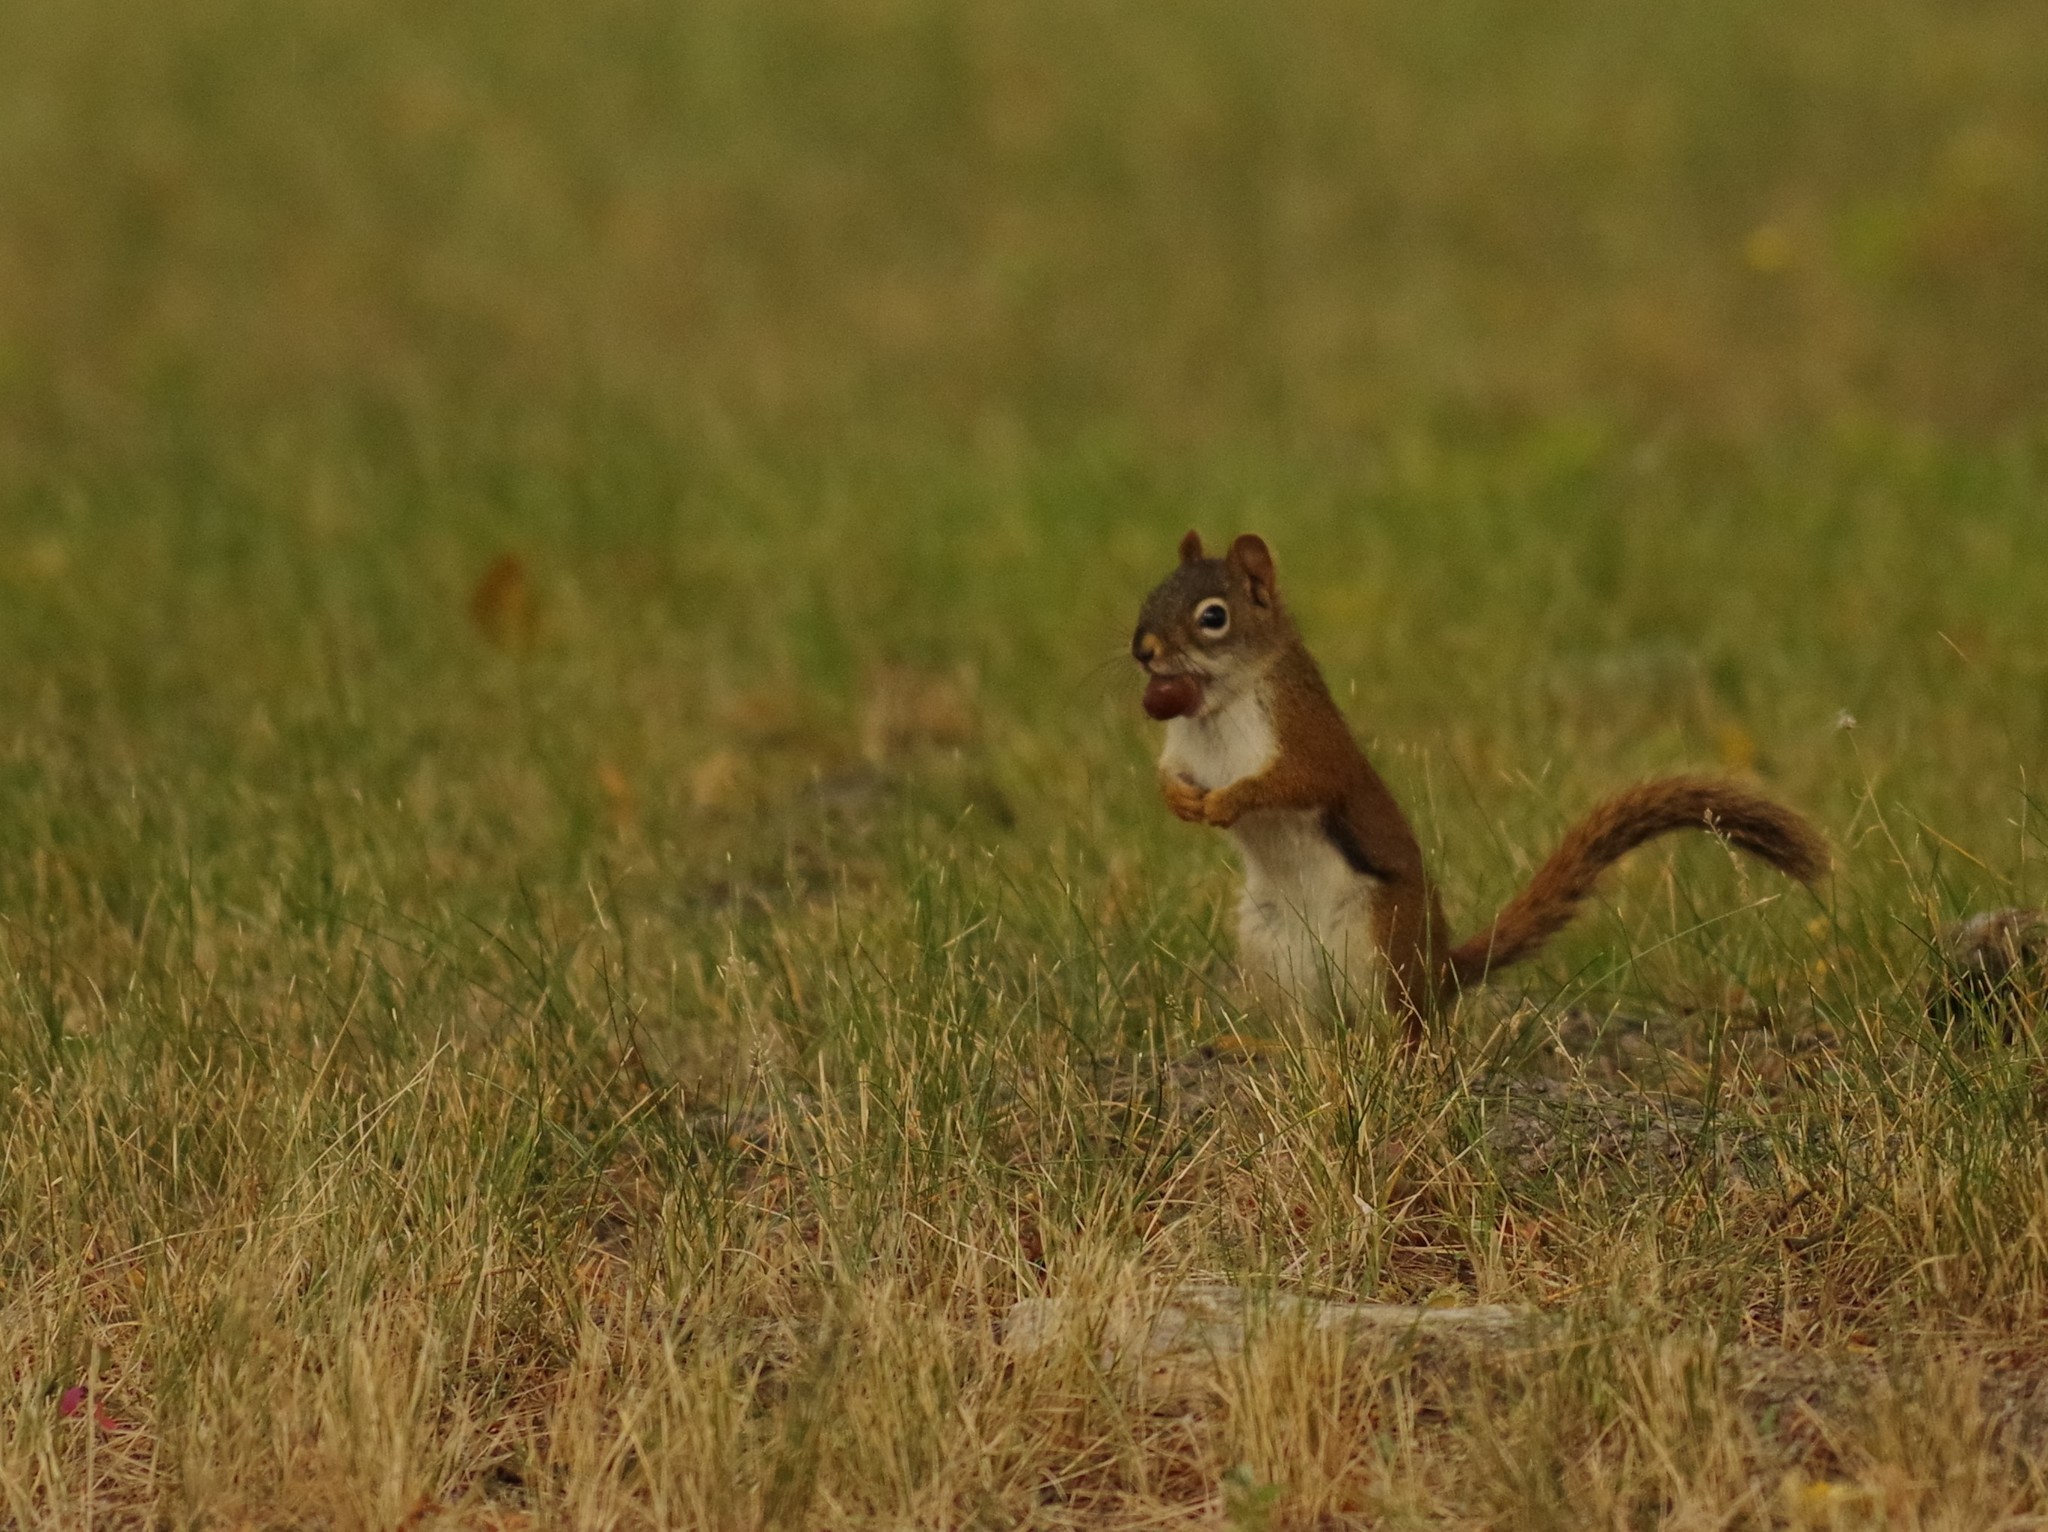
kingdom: Animalia
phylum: Chordata
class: Mammalia
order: Rodentia
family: Sciuridae
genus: Tamiasciurus
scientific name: Tamiasciurus hudsonicus
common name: Red squirrel
